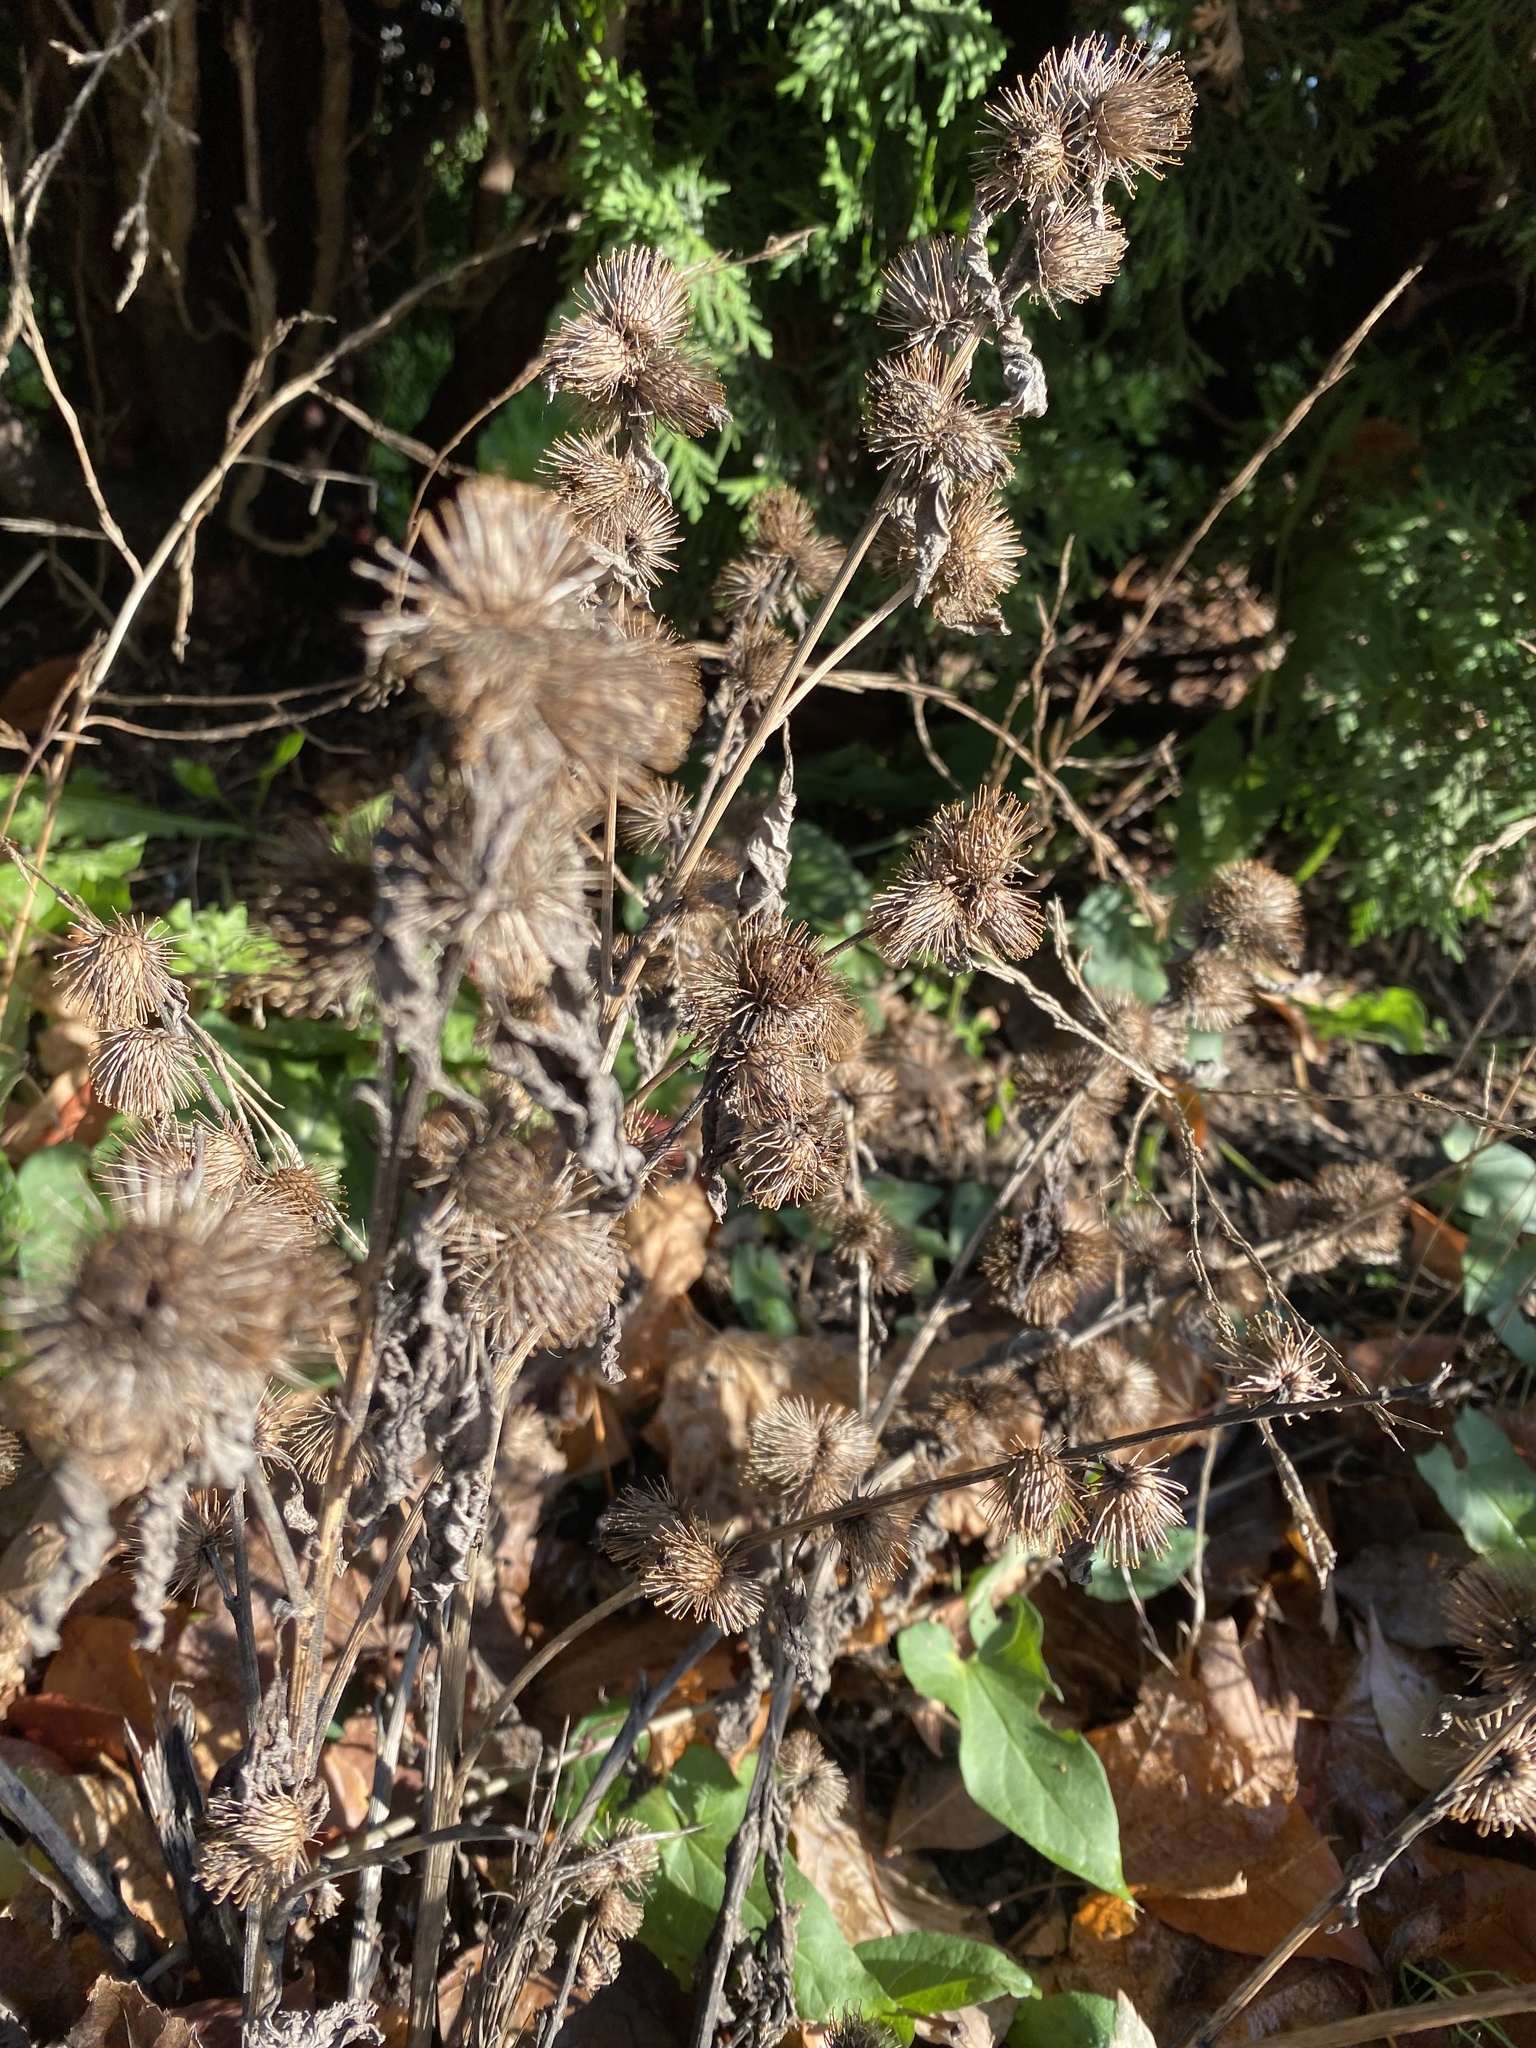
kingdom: Plantae
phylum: Tracheophyta
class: Magnoliopsida
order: Asterales
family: Asteraceae
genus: Arctium
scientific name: Arctium minus
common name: Lesser burdock
